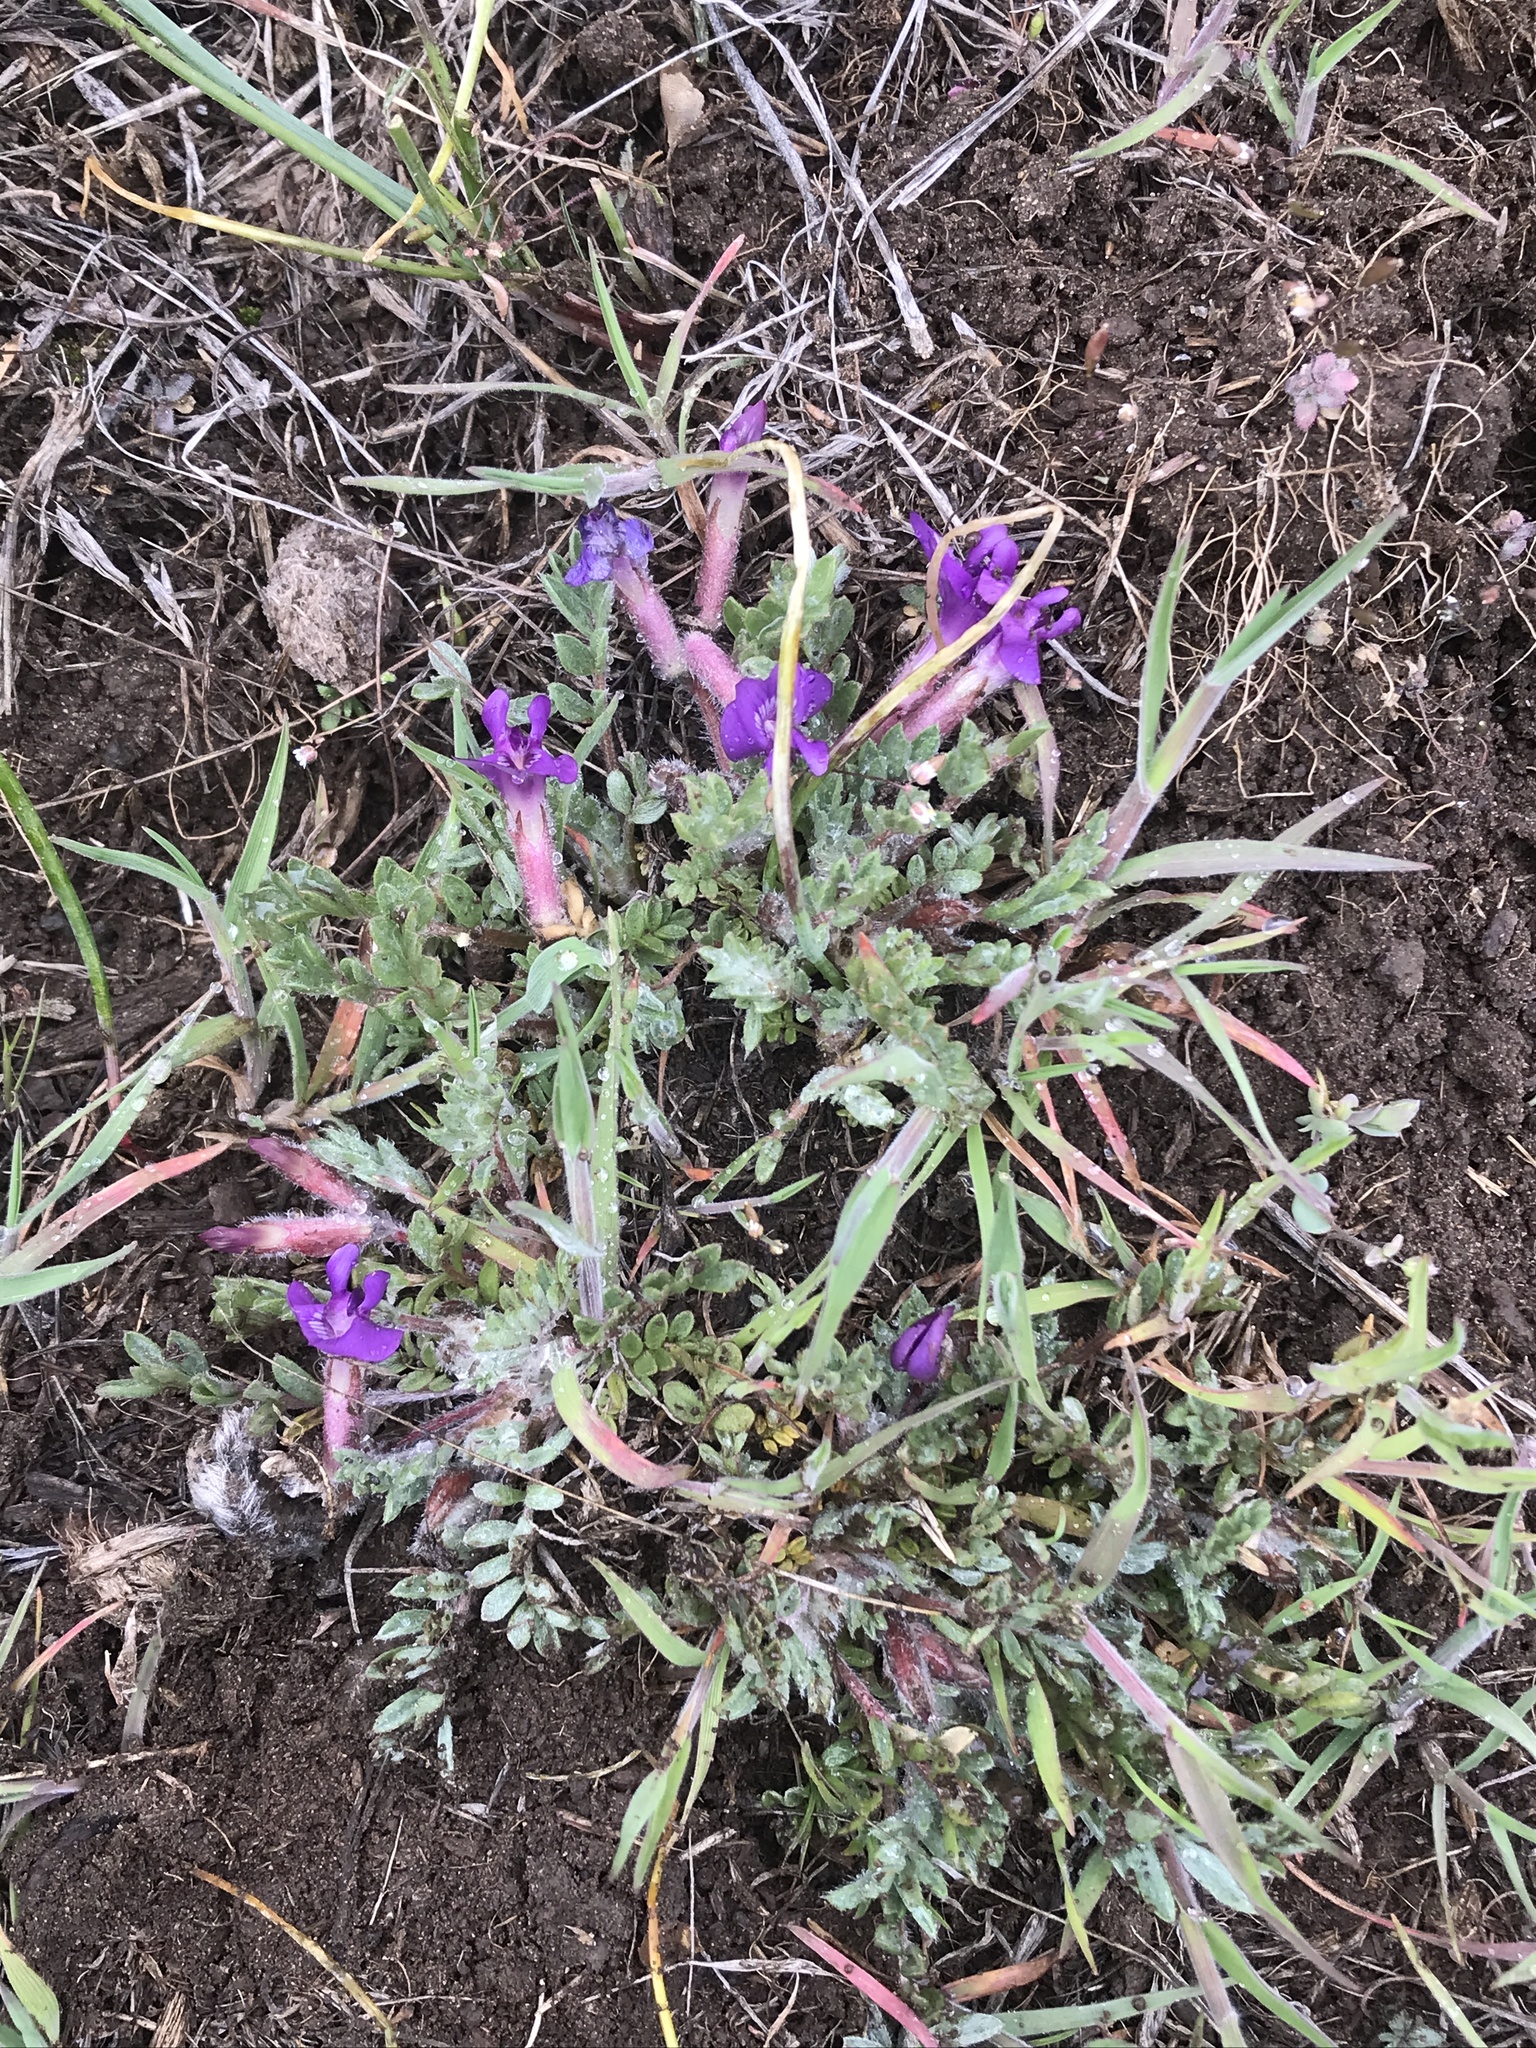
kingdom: Plantae
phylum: Tracheophyta
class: Magnoliopsida
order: Fabales
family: Fabaceae
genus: Astragalus
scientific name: Astragalus purshii
